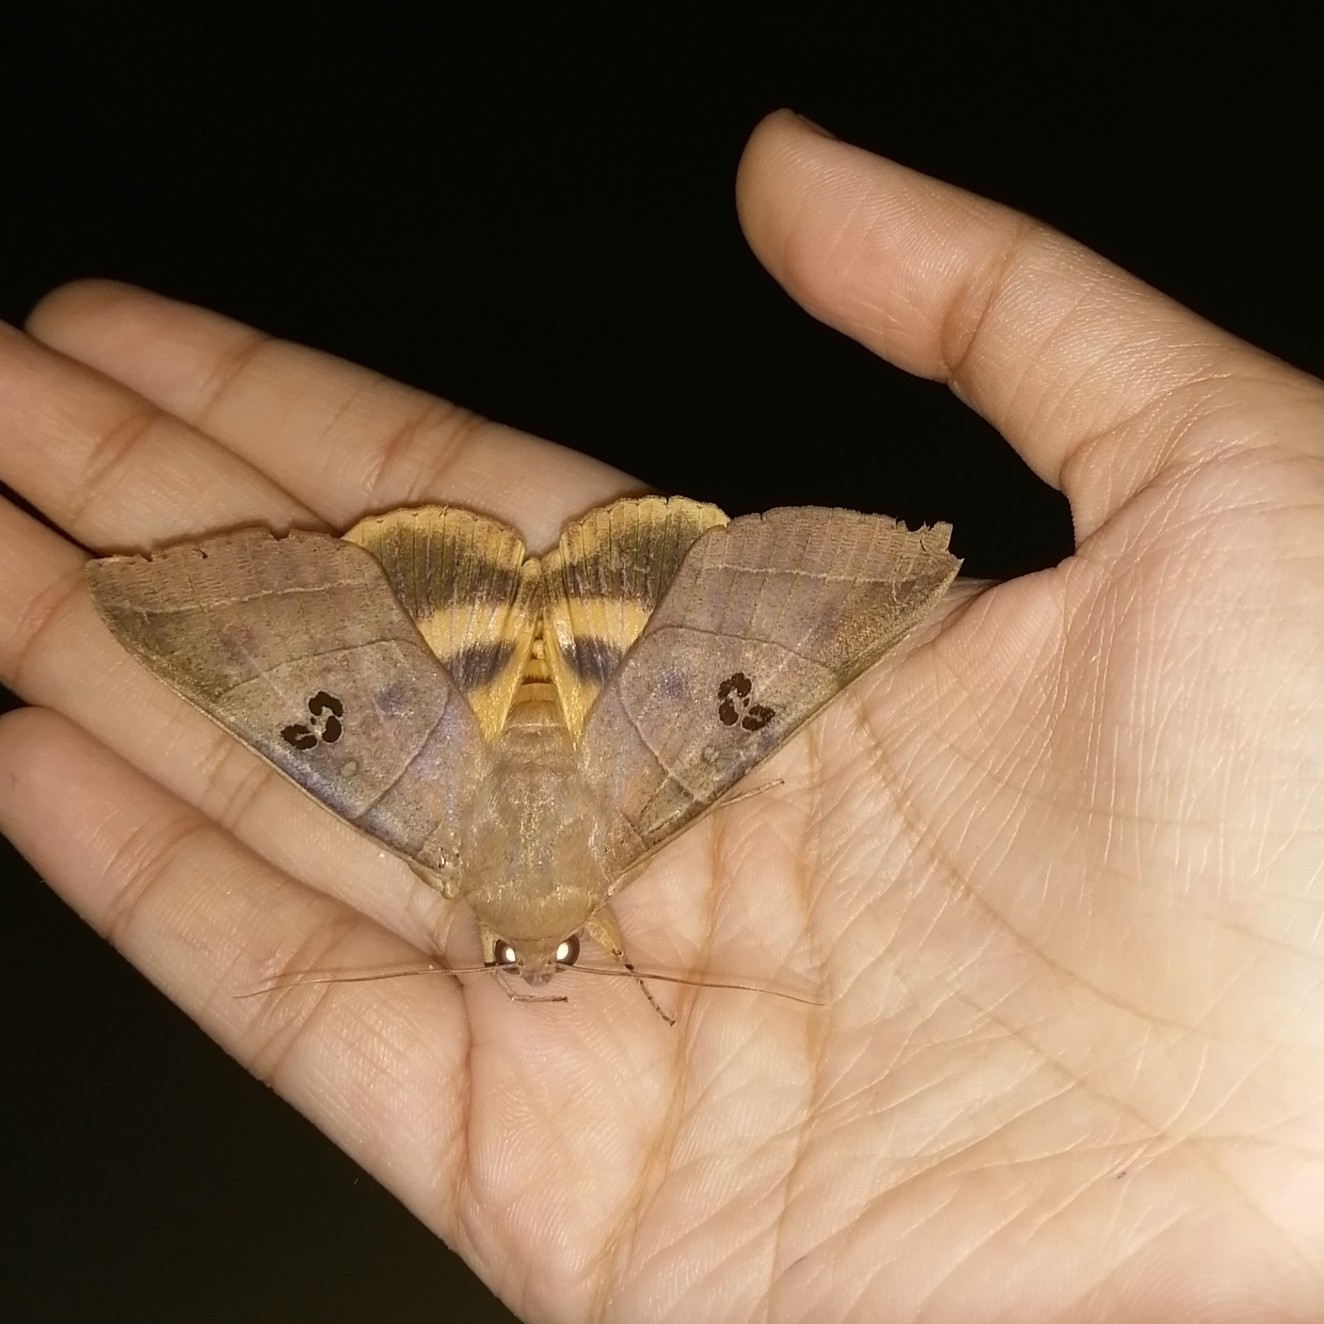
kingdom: Animalia
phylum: Arthropoda
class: Insecta
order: Lepidoptera
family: Erebidae
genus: Thyas
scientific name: Thyas coronata
